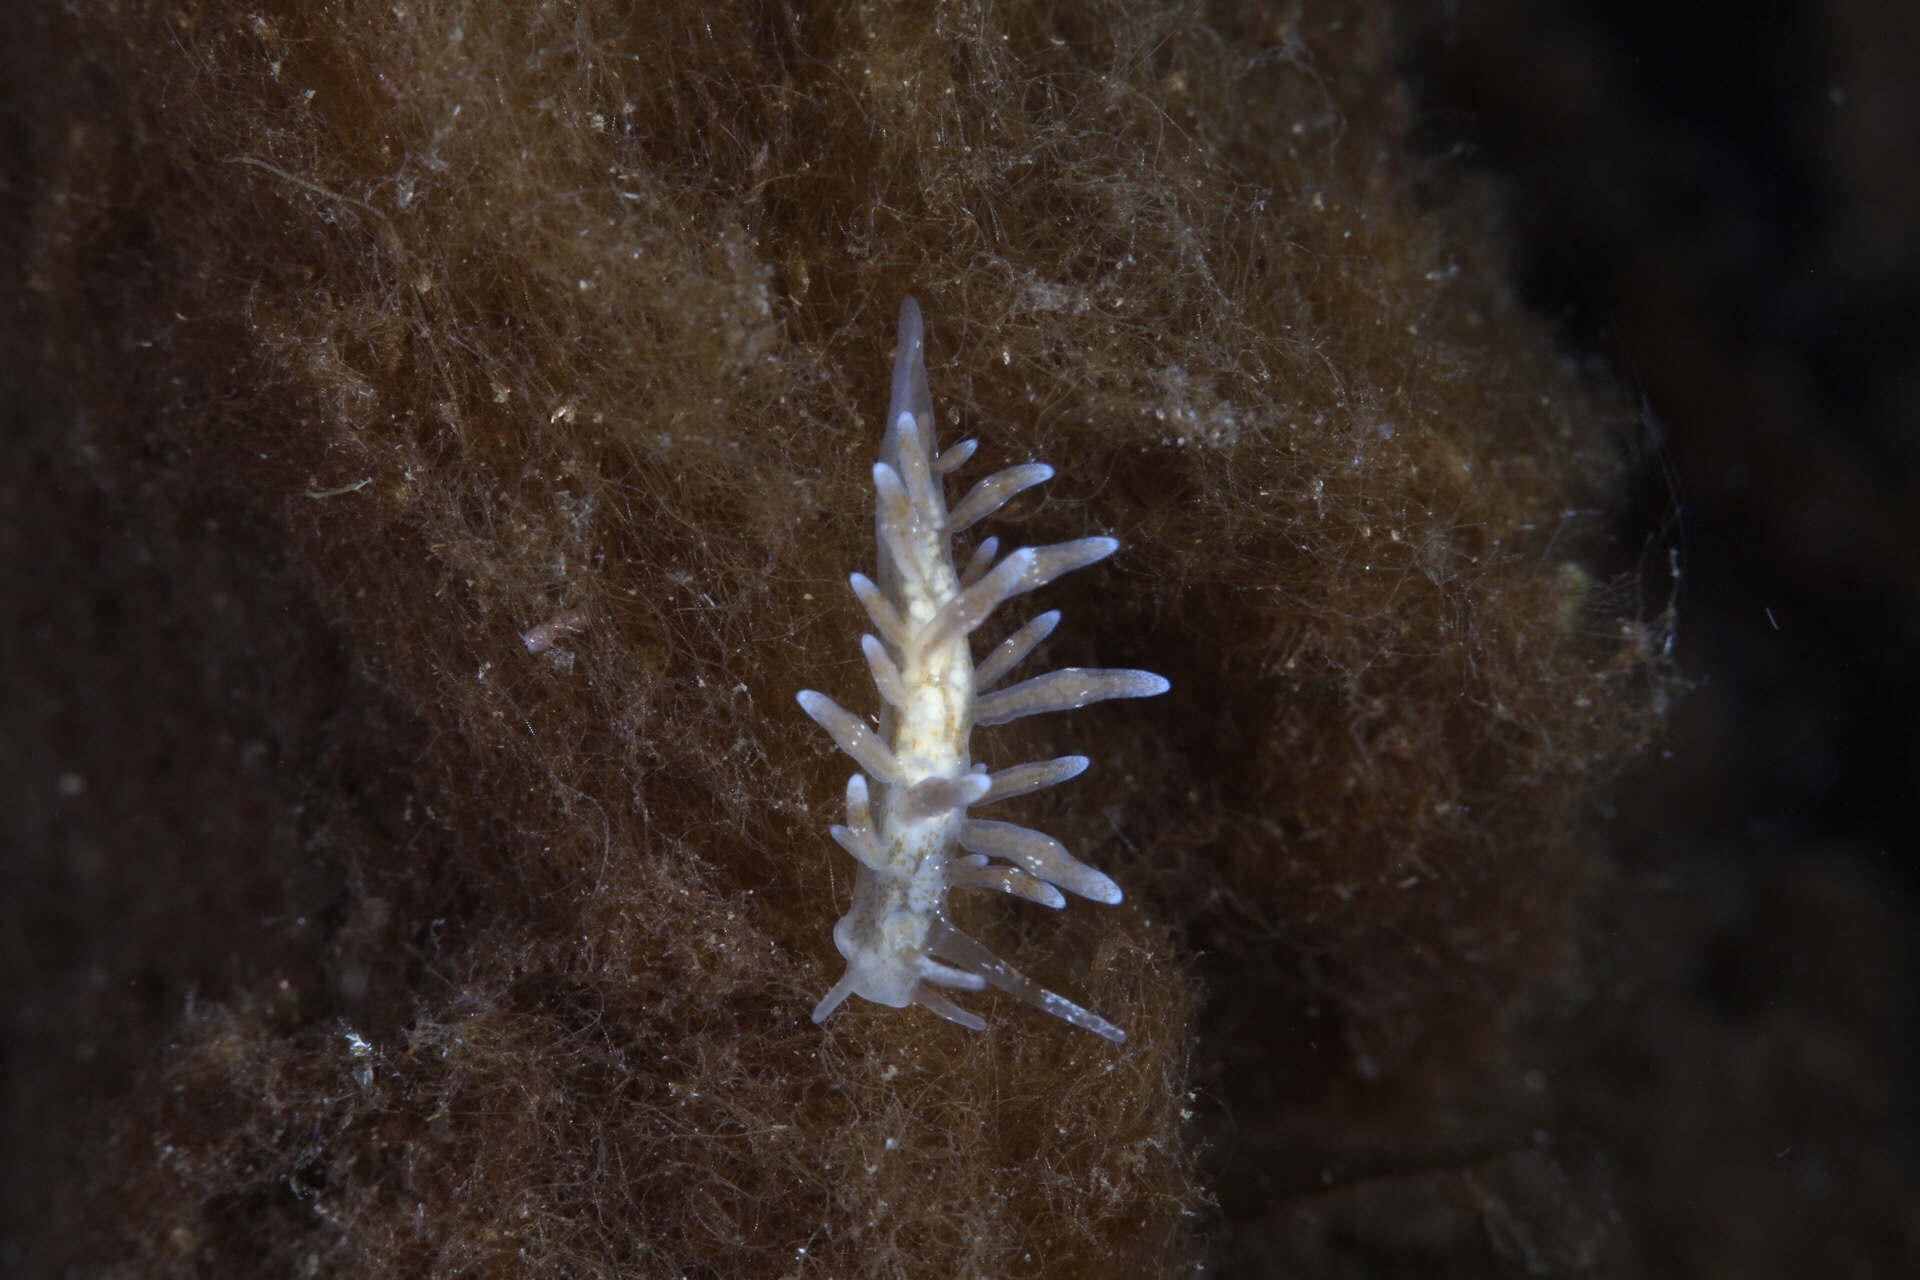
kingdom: Animalia
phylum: Mollusca
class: Gastropoda
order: Nudibranchia
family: Eubranchidae
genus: Eubranchus
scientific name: Eubranchus rupium
